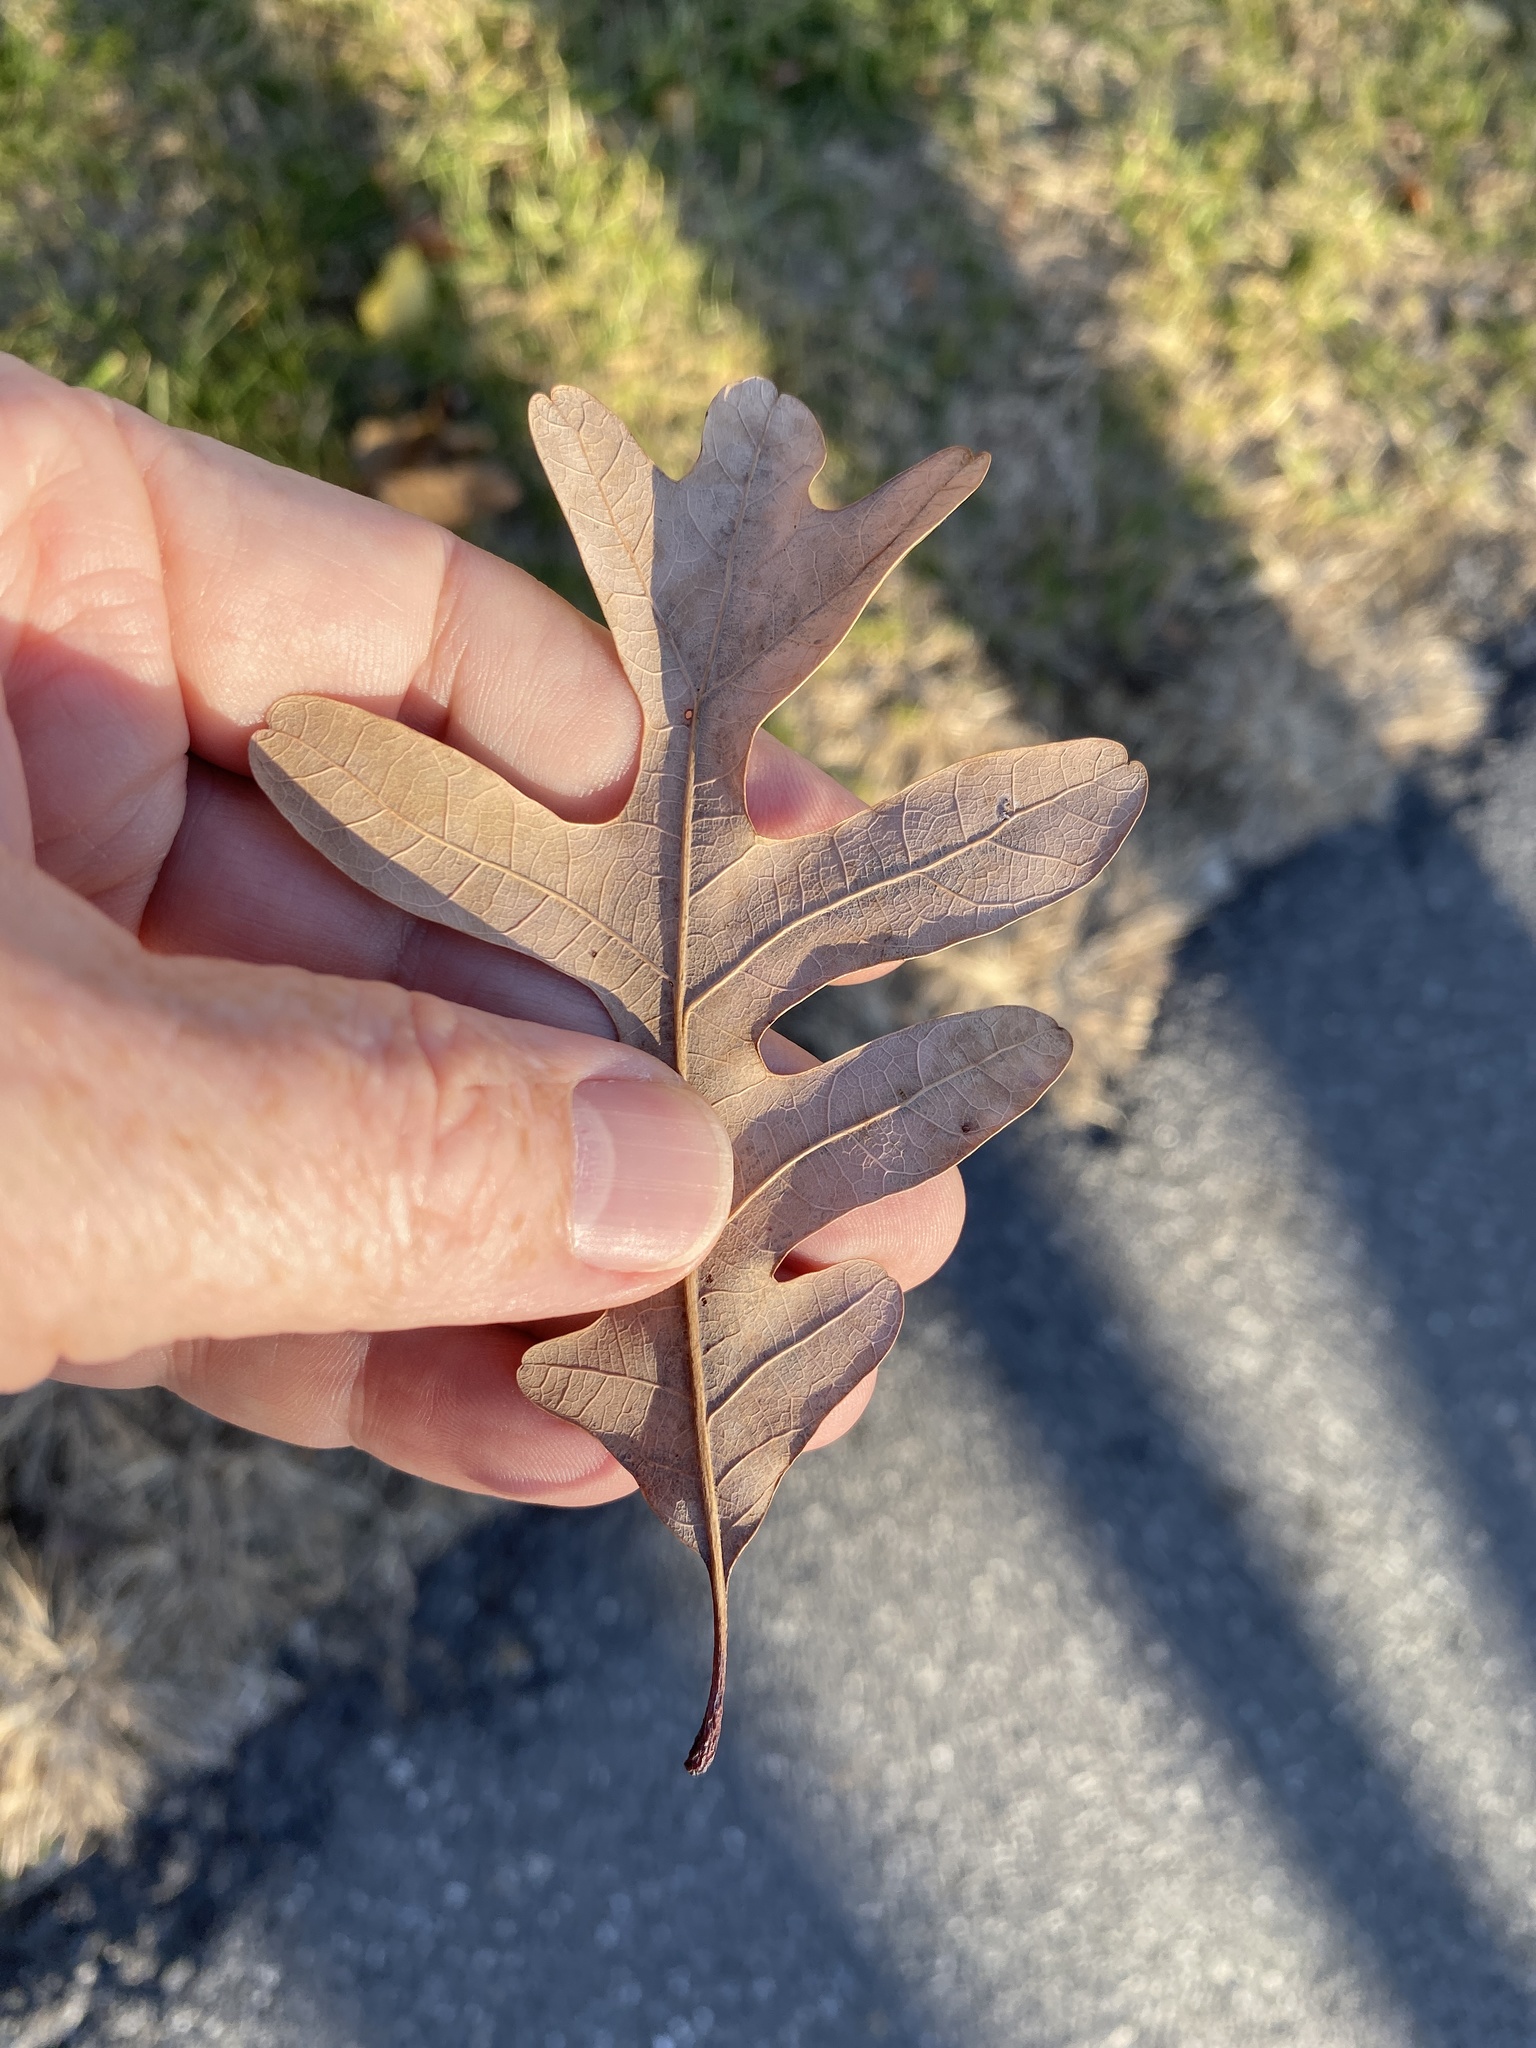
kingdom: Plantae
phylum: Tracheophyta
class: Magnoliopsida
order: Fagales
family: Fagaceae
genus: Quercus
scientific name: Quercus alba
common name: White oak
